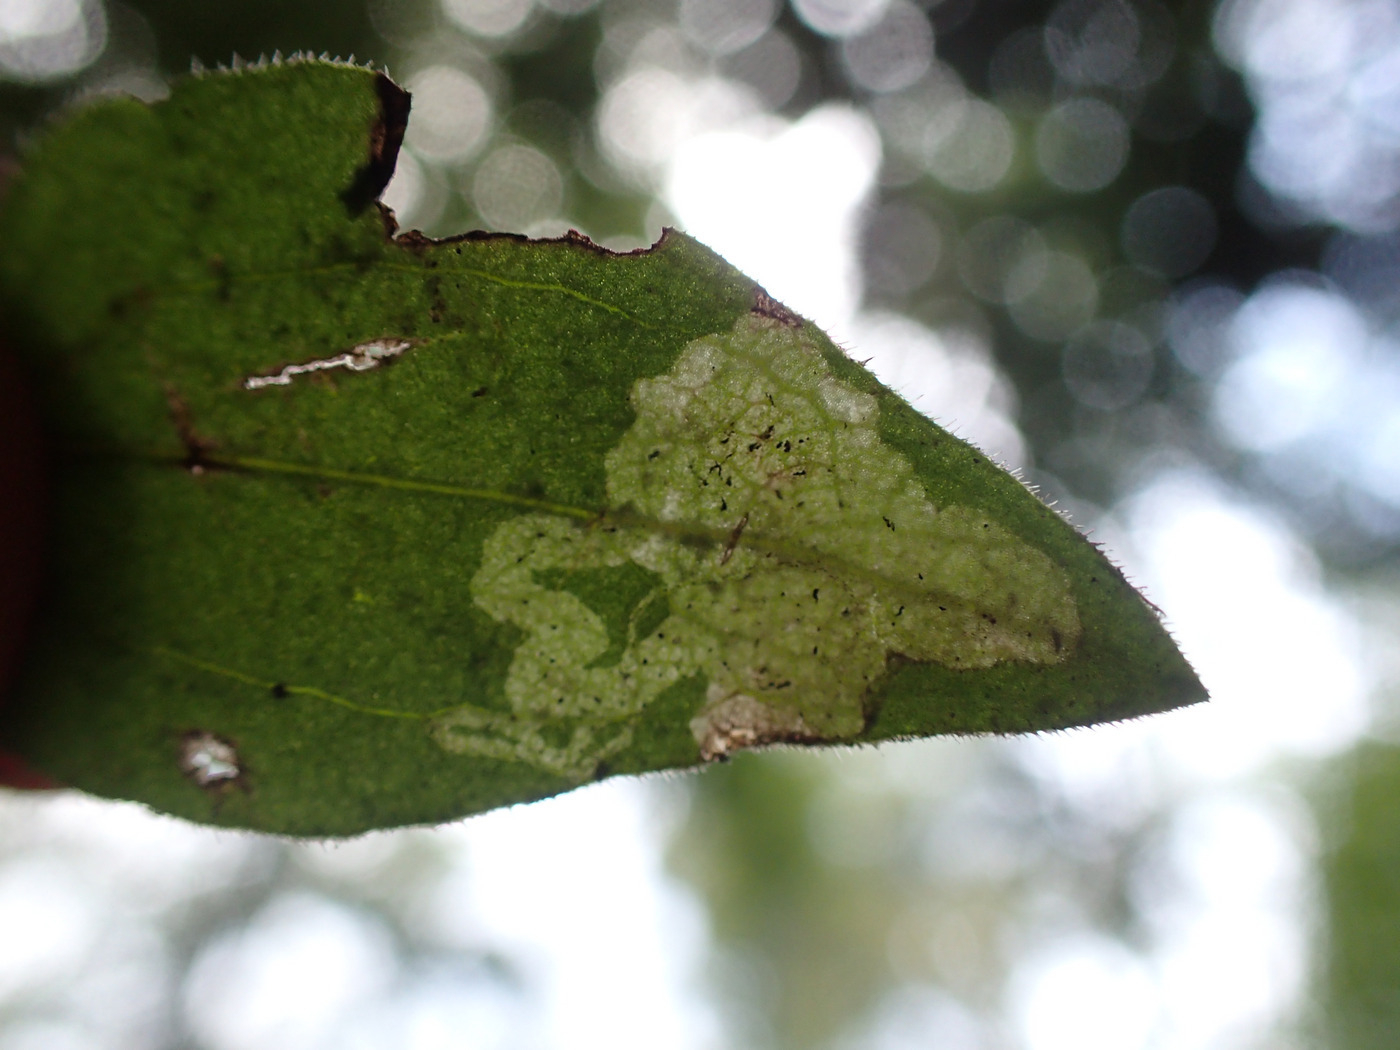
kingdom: Animalia
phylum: Arthropoda
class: Insecta
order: Diptera
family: Agromyzidae
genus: Liriomyza
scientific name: Liriomyza galiivora
